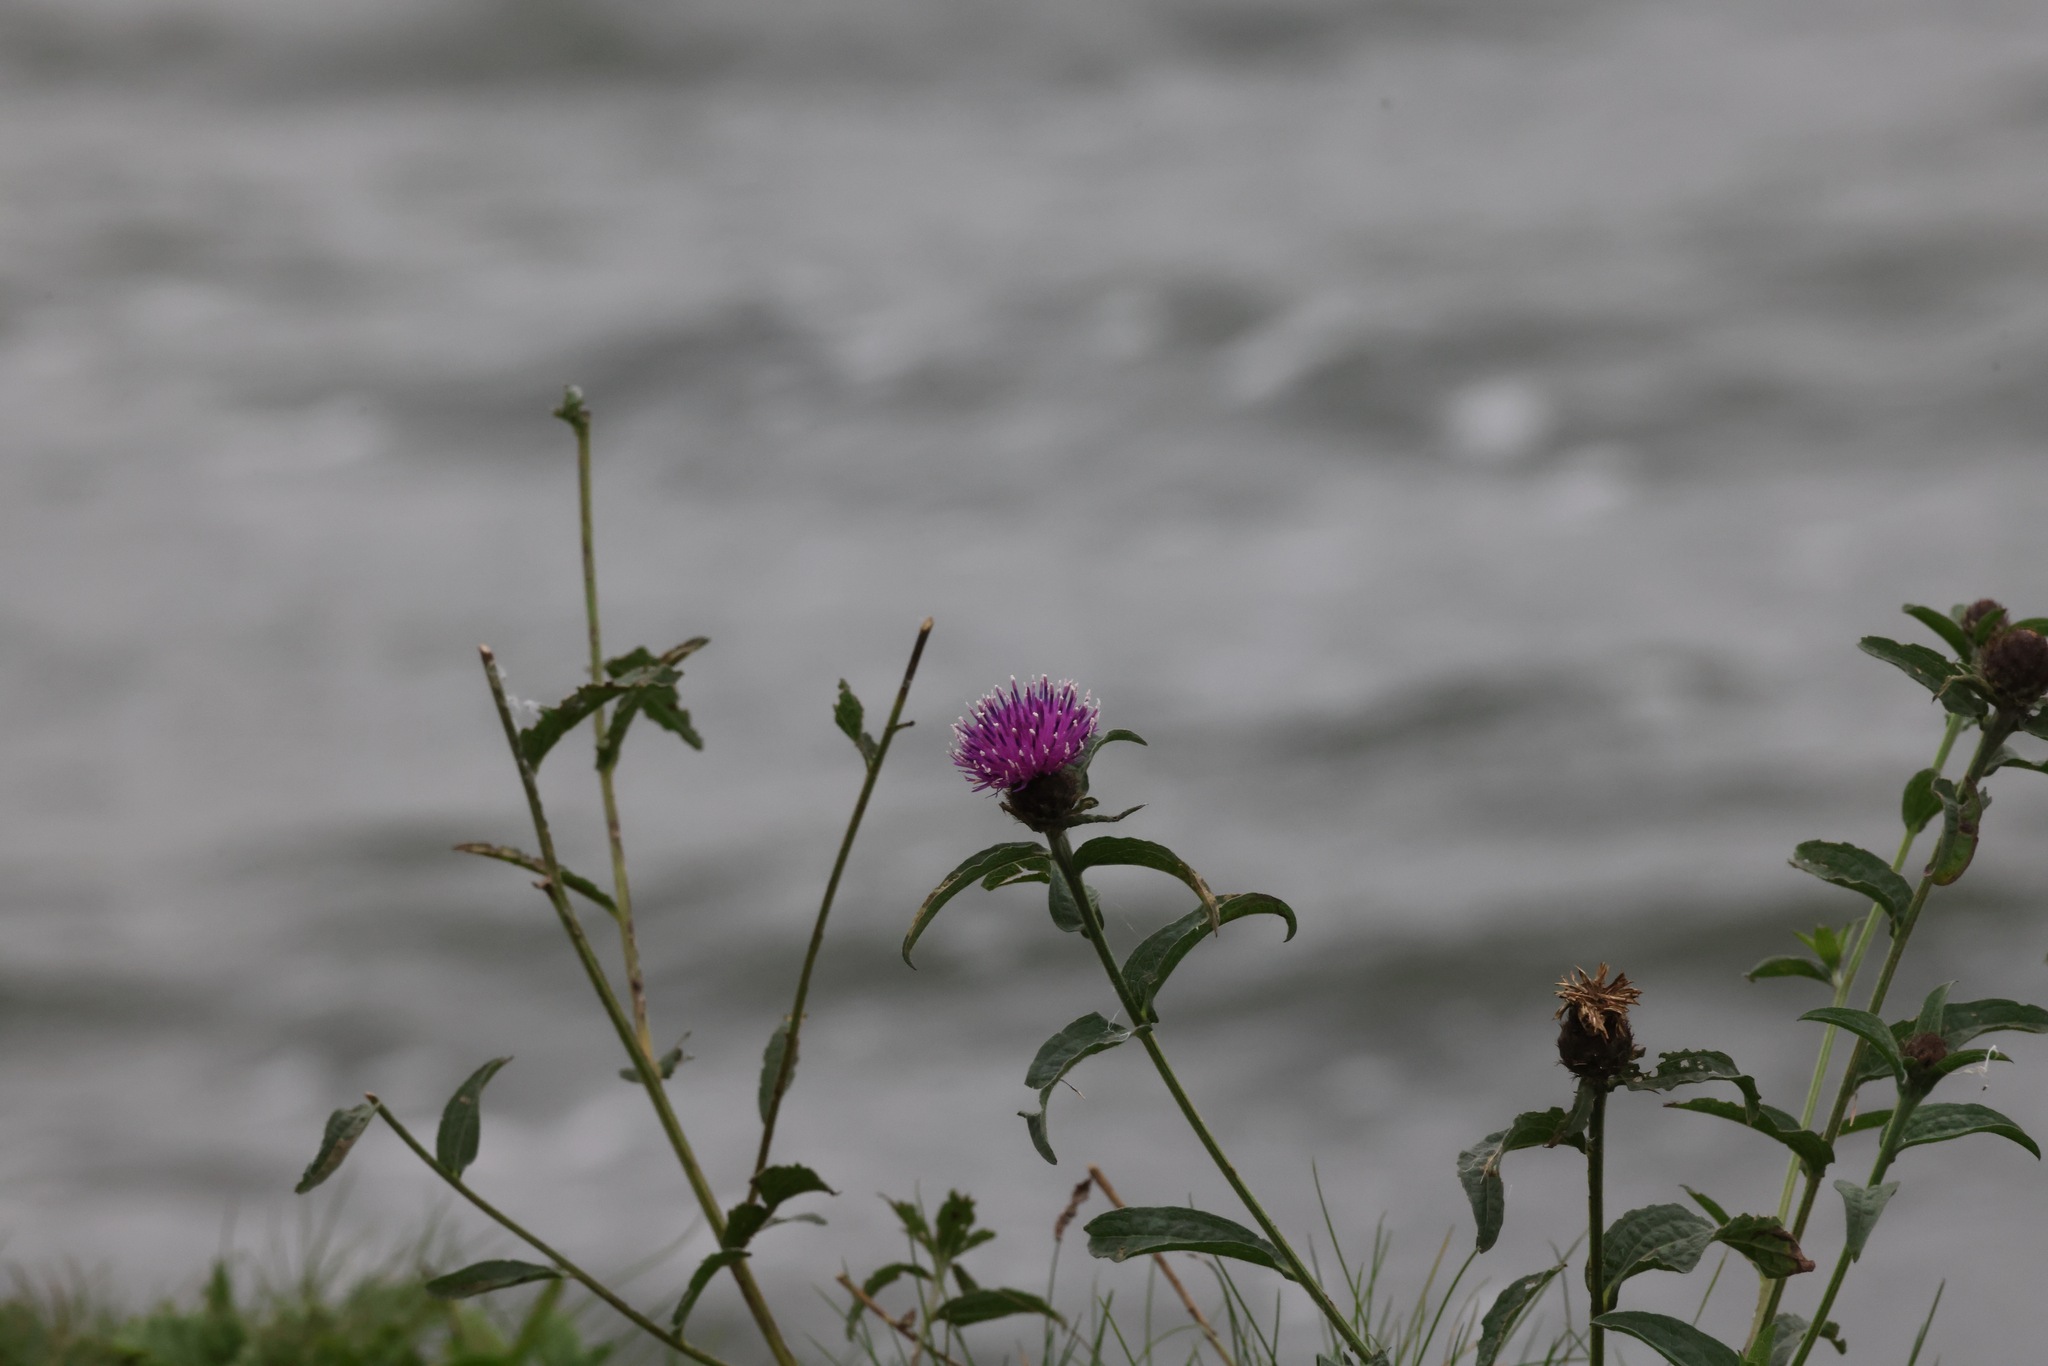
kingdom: Plantae
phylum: Tracheophyta
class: Magnoliopsida
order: Asterales
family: Asteraceae
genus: Centaurea
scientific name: Centaurea nigra
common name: Lesser knapweed
